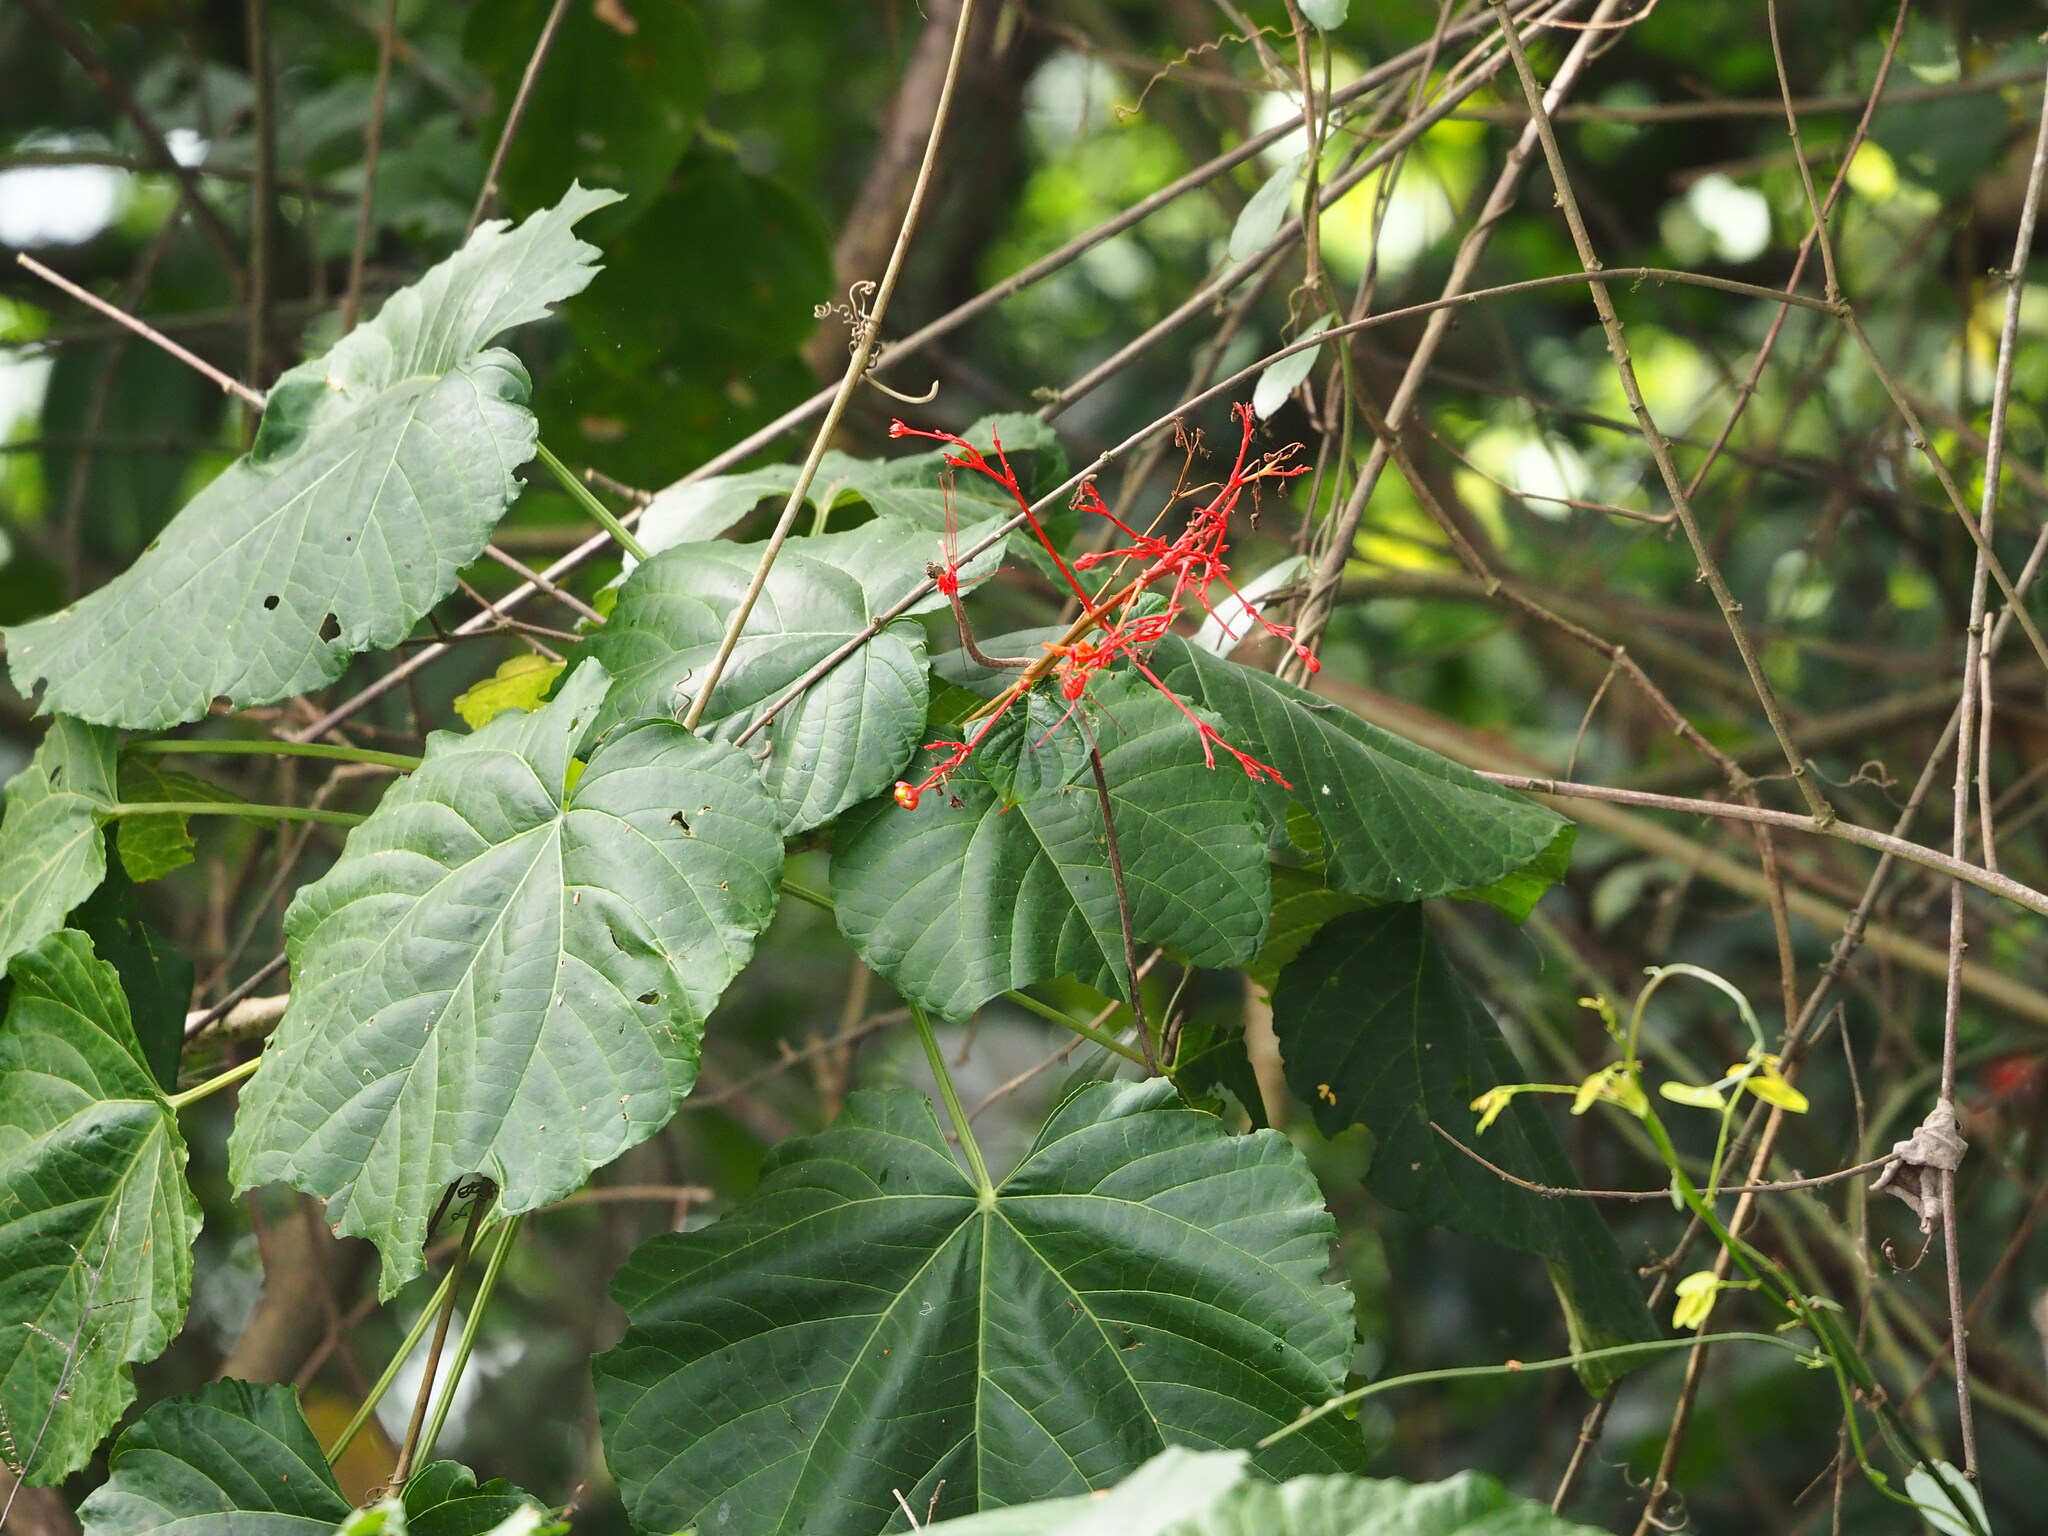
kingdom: Plantae
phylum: Tracheophyta
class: Magnoliopsida
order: Lamiales
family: Lamiaceae
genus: Clerodendrum
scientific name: Clerodendrum japonicum
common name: Japanese glorybower
